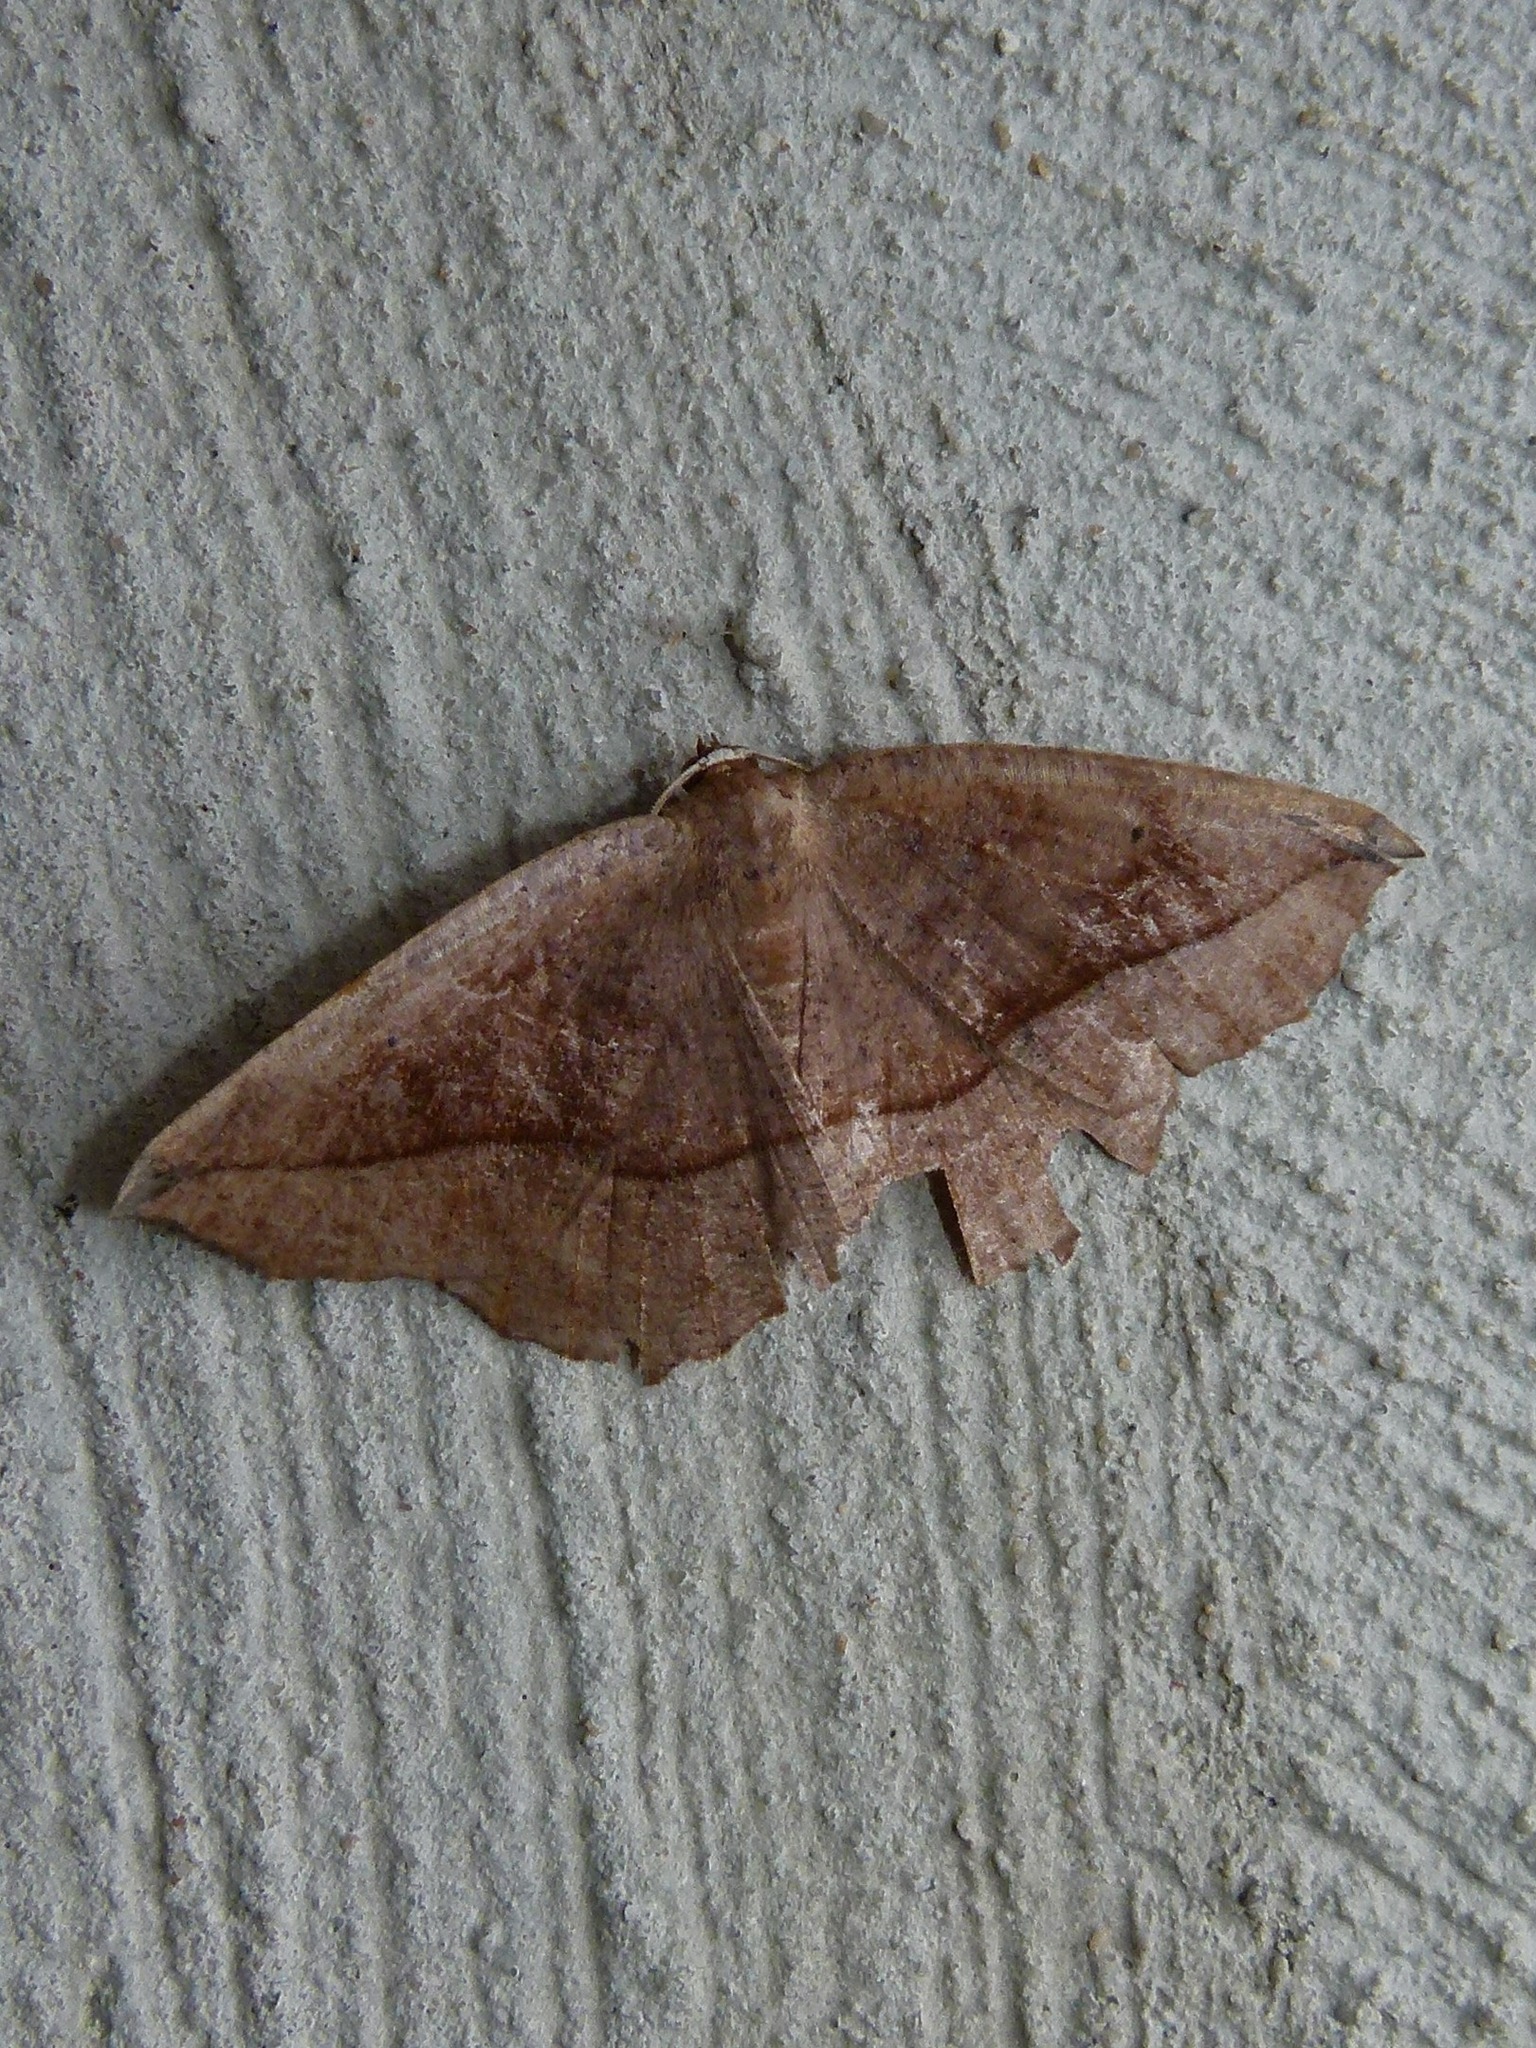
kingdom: Animalia
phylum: Arthropoda
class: Insecta
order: Lepidoptera
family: Geometridae
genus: Eutrapela
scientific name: Eutrapela clemataria
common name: Curved-toothed geometer
